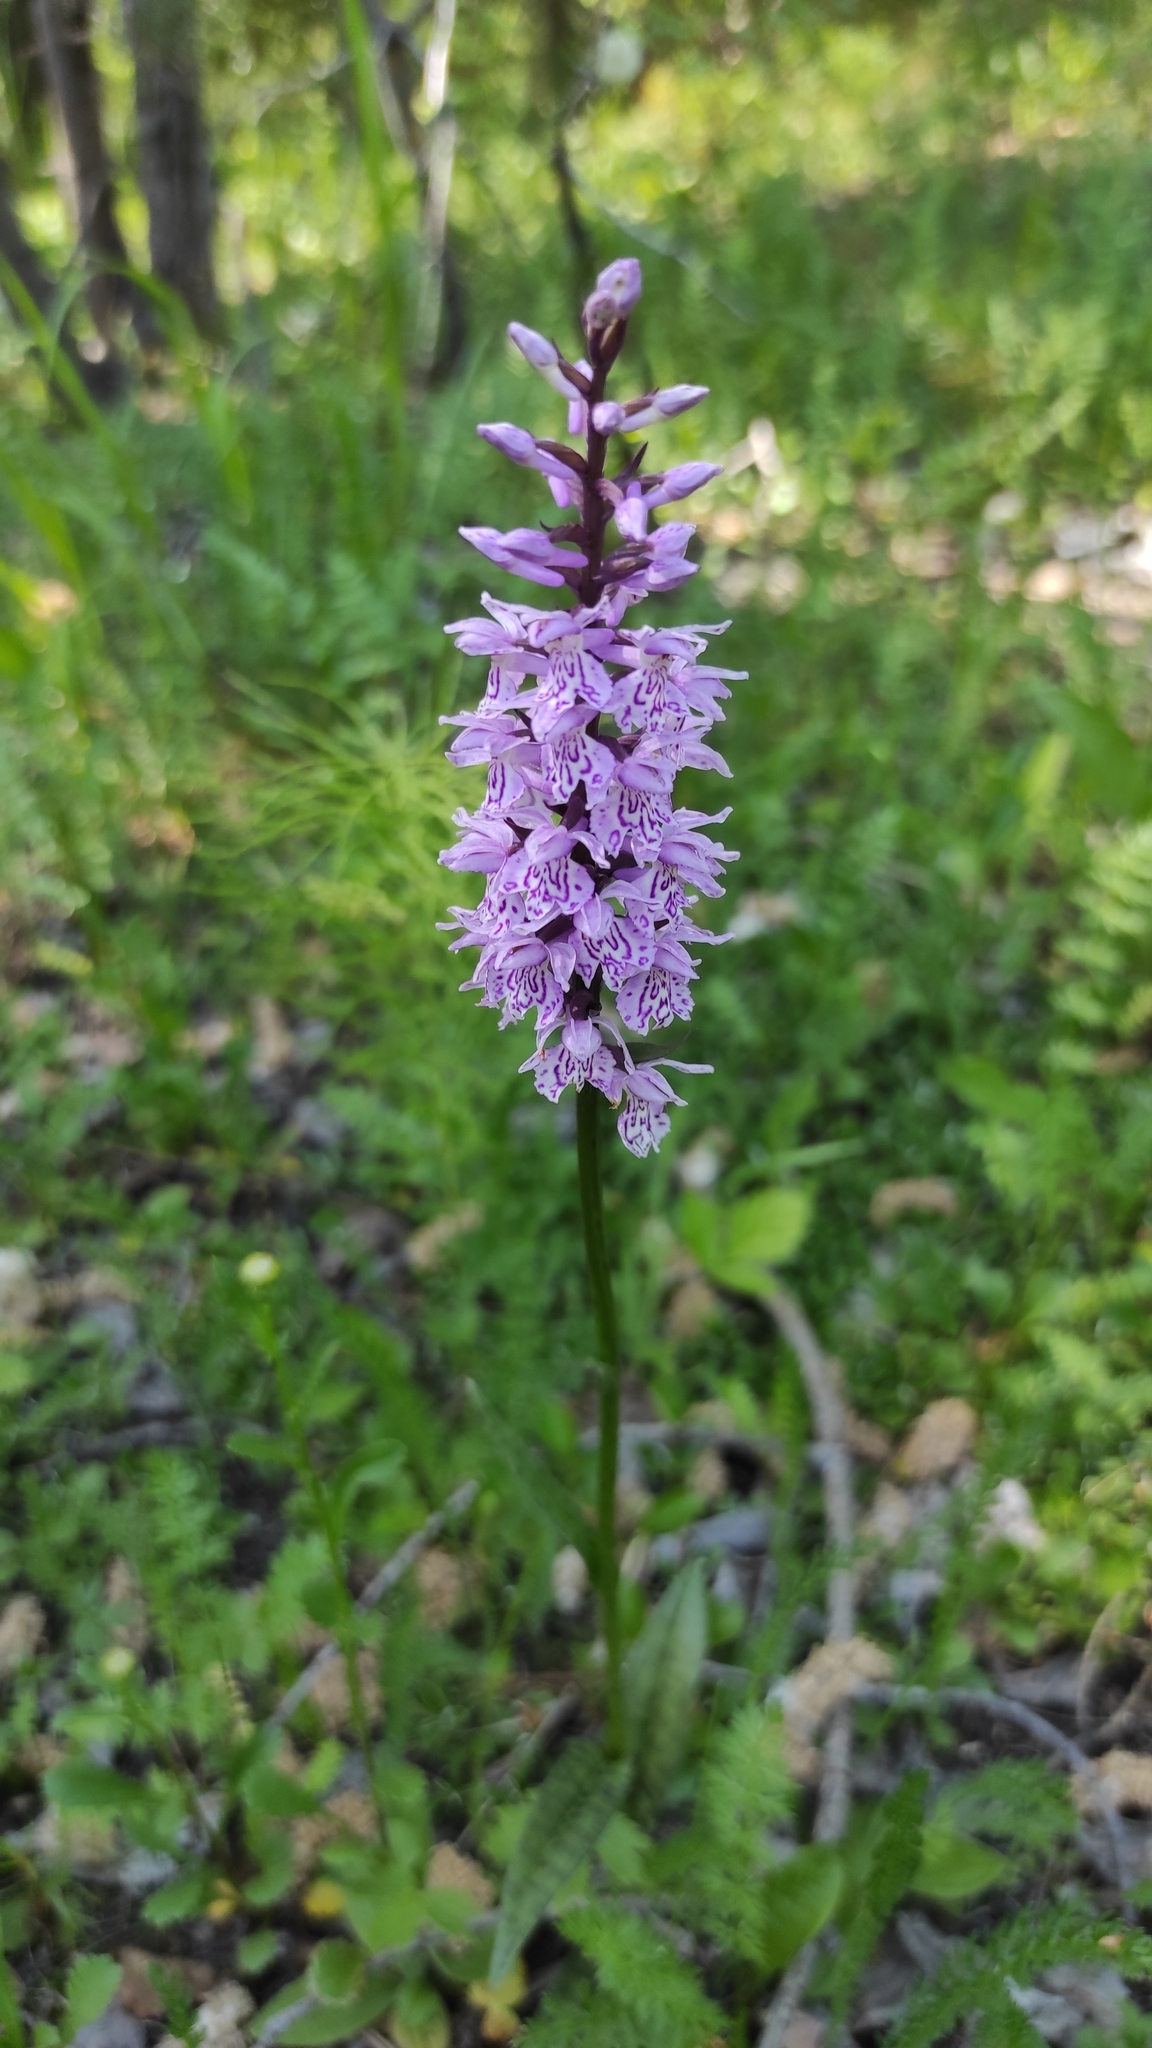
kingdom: Plantae
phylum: Tracheophyta
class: Liliopsida
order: Asparagales
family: Orchidaceae
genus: Dactylorhiza
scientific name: Dactylorhiza maculata
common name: Heath spotted-orchid
